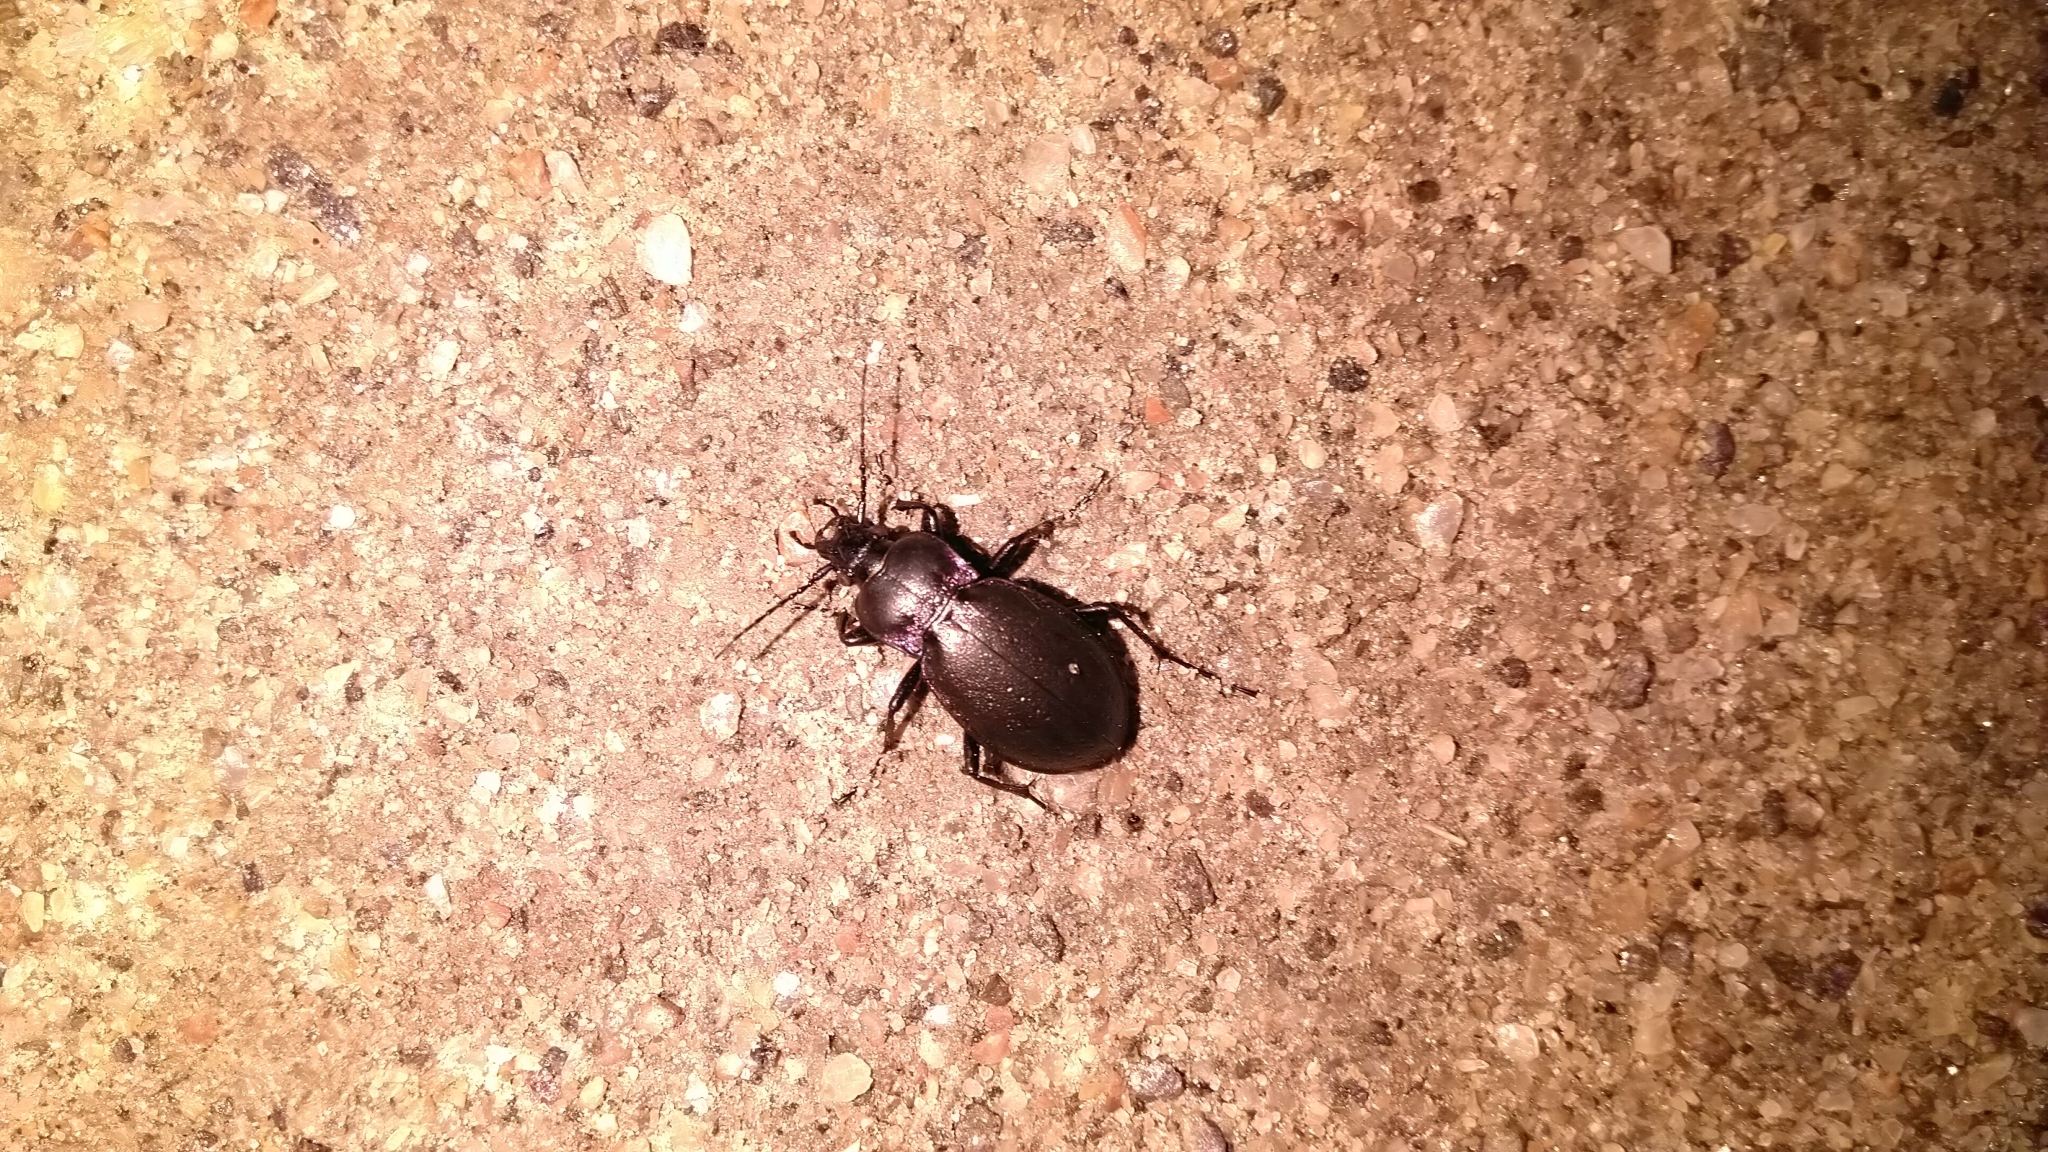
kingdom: Animalia
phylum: Arthropoda
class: Insecta
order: Coleoptera
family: Carabidae
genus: Carabus
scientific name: Carabus nemoralis
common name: European ground beetle
